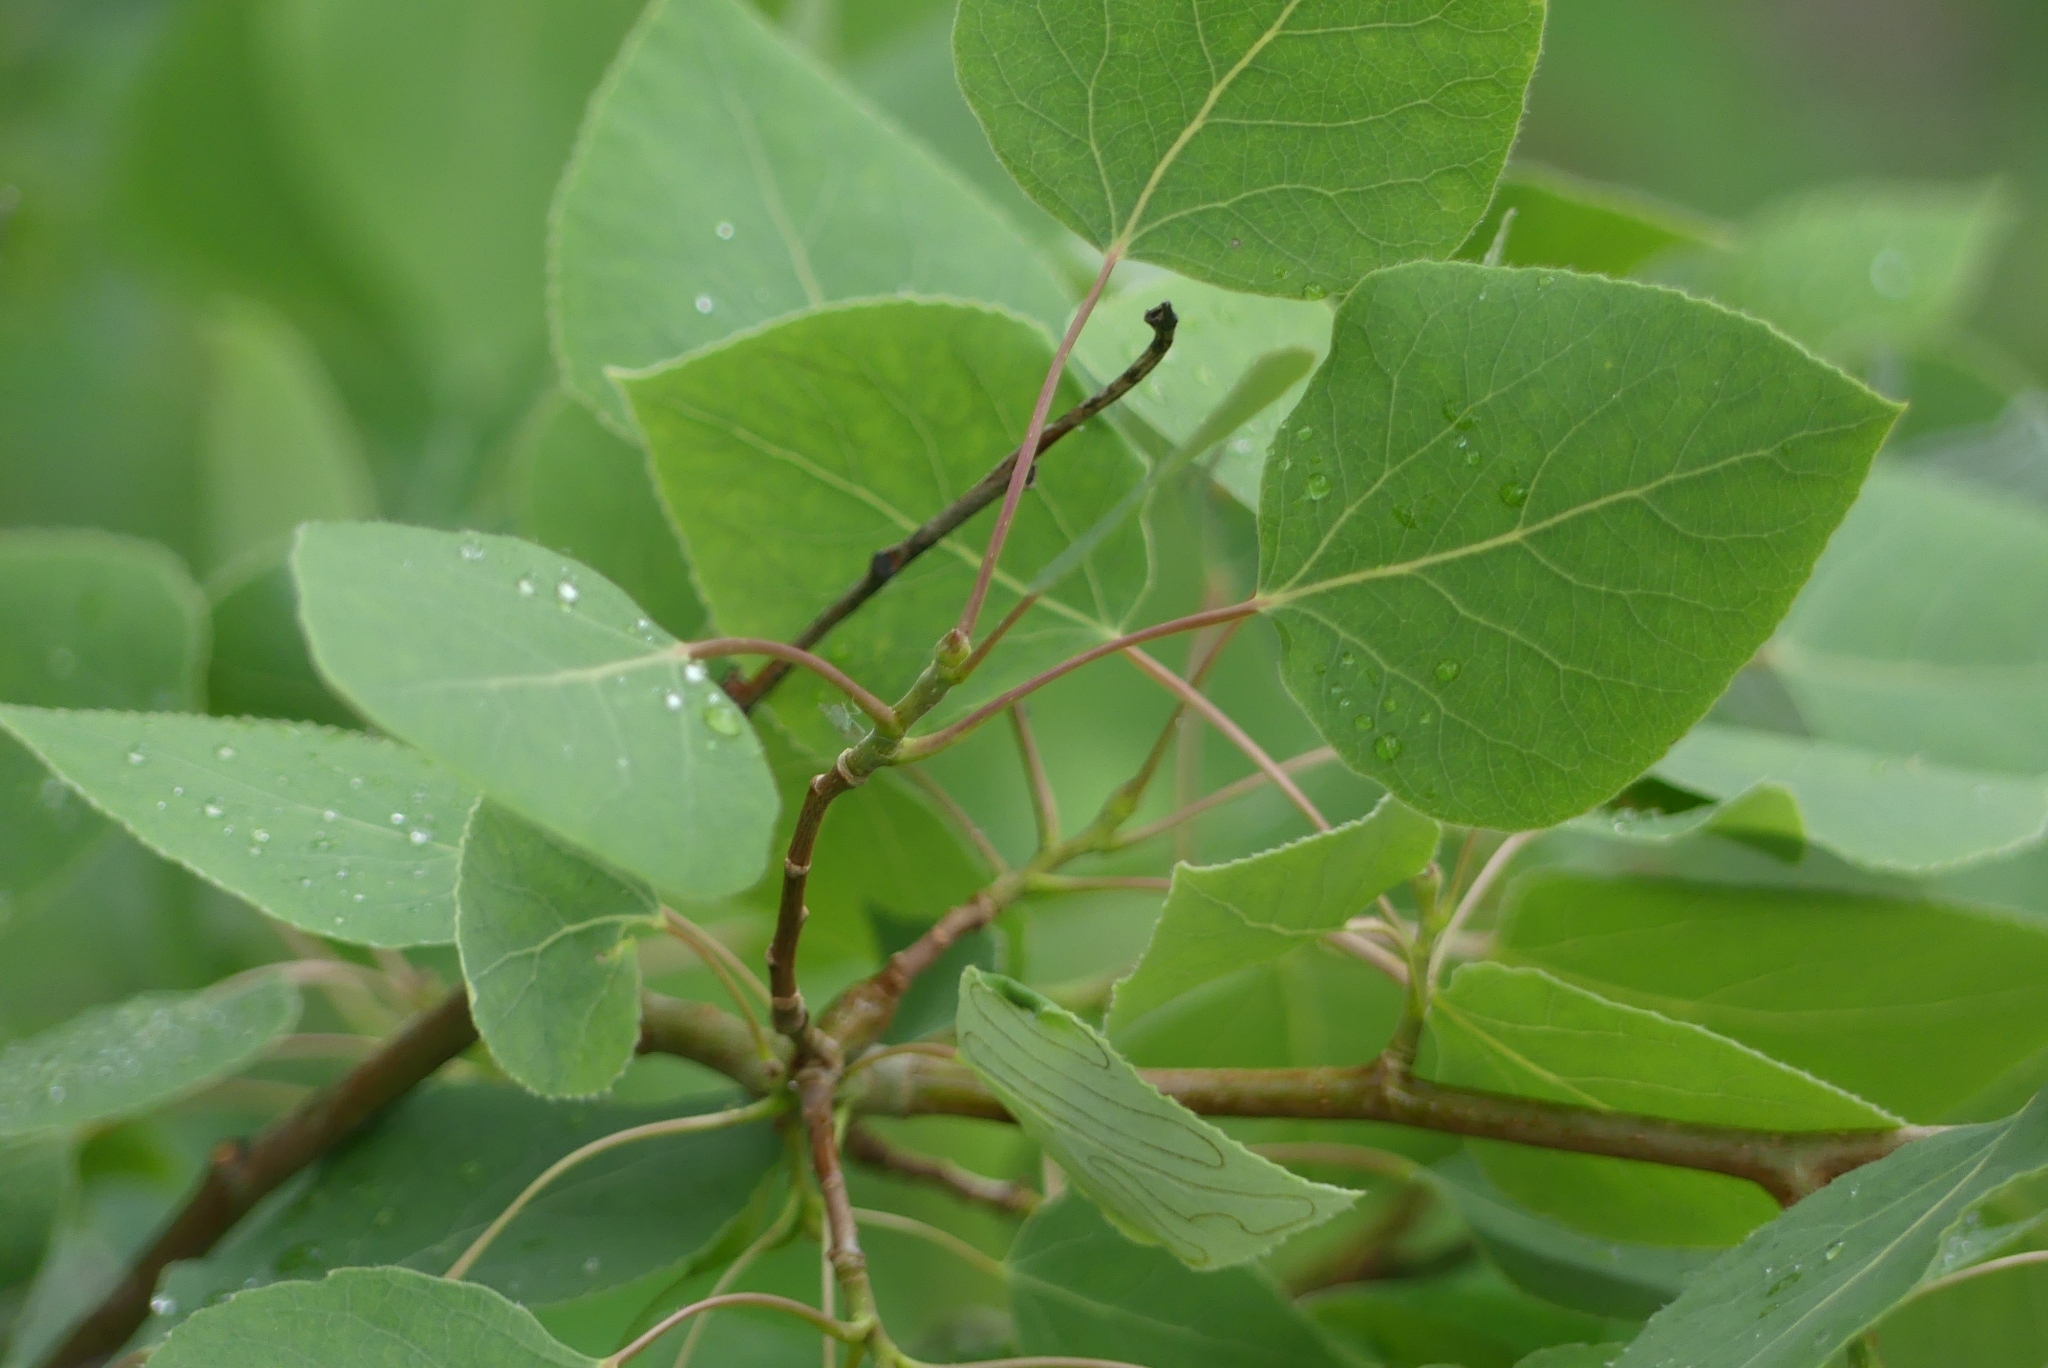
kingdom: Plantae
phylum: Tracheophyta
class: Magnoliopsida
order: Malpighiales
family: Salicaceae
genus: Populus
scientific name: Populus tremuloides
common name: Quaking aspen
